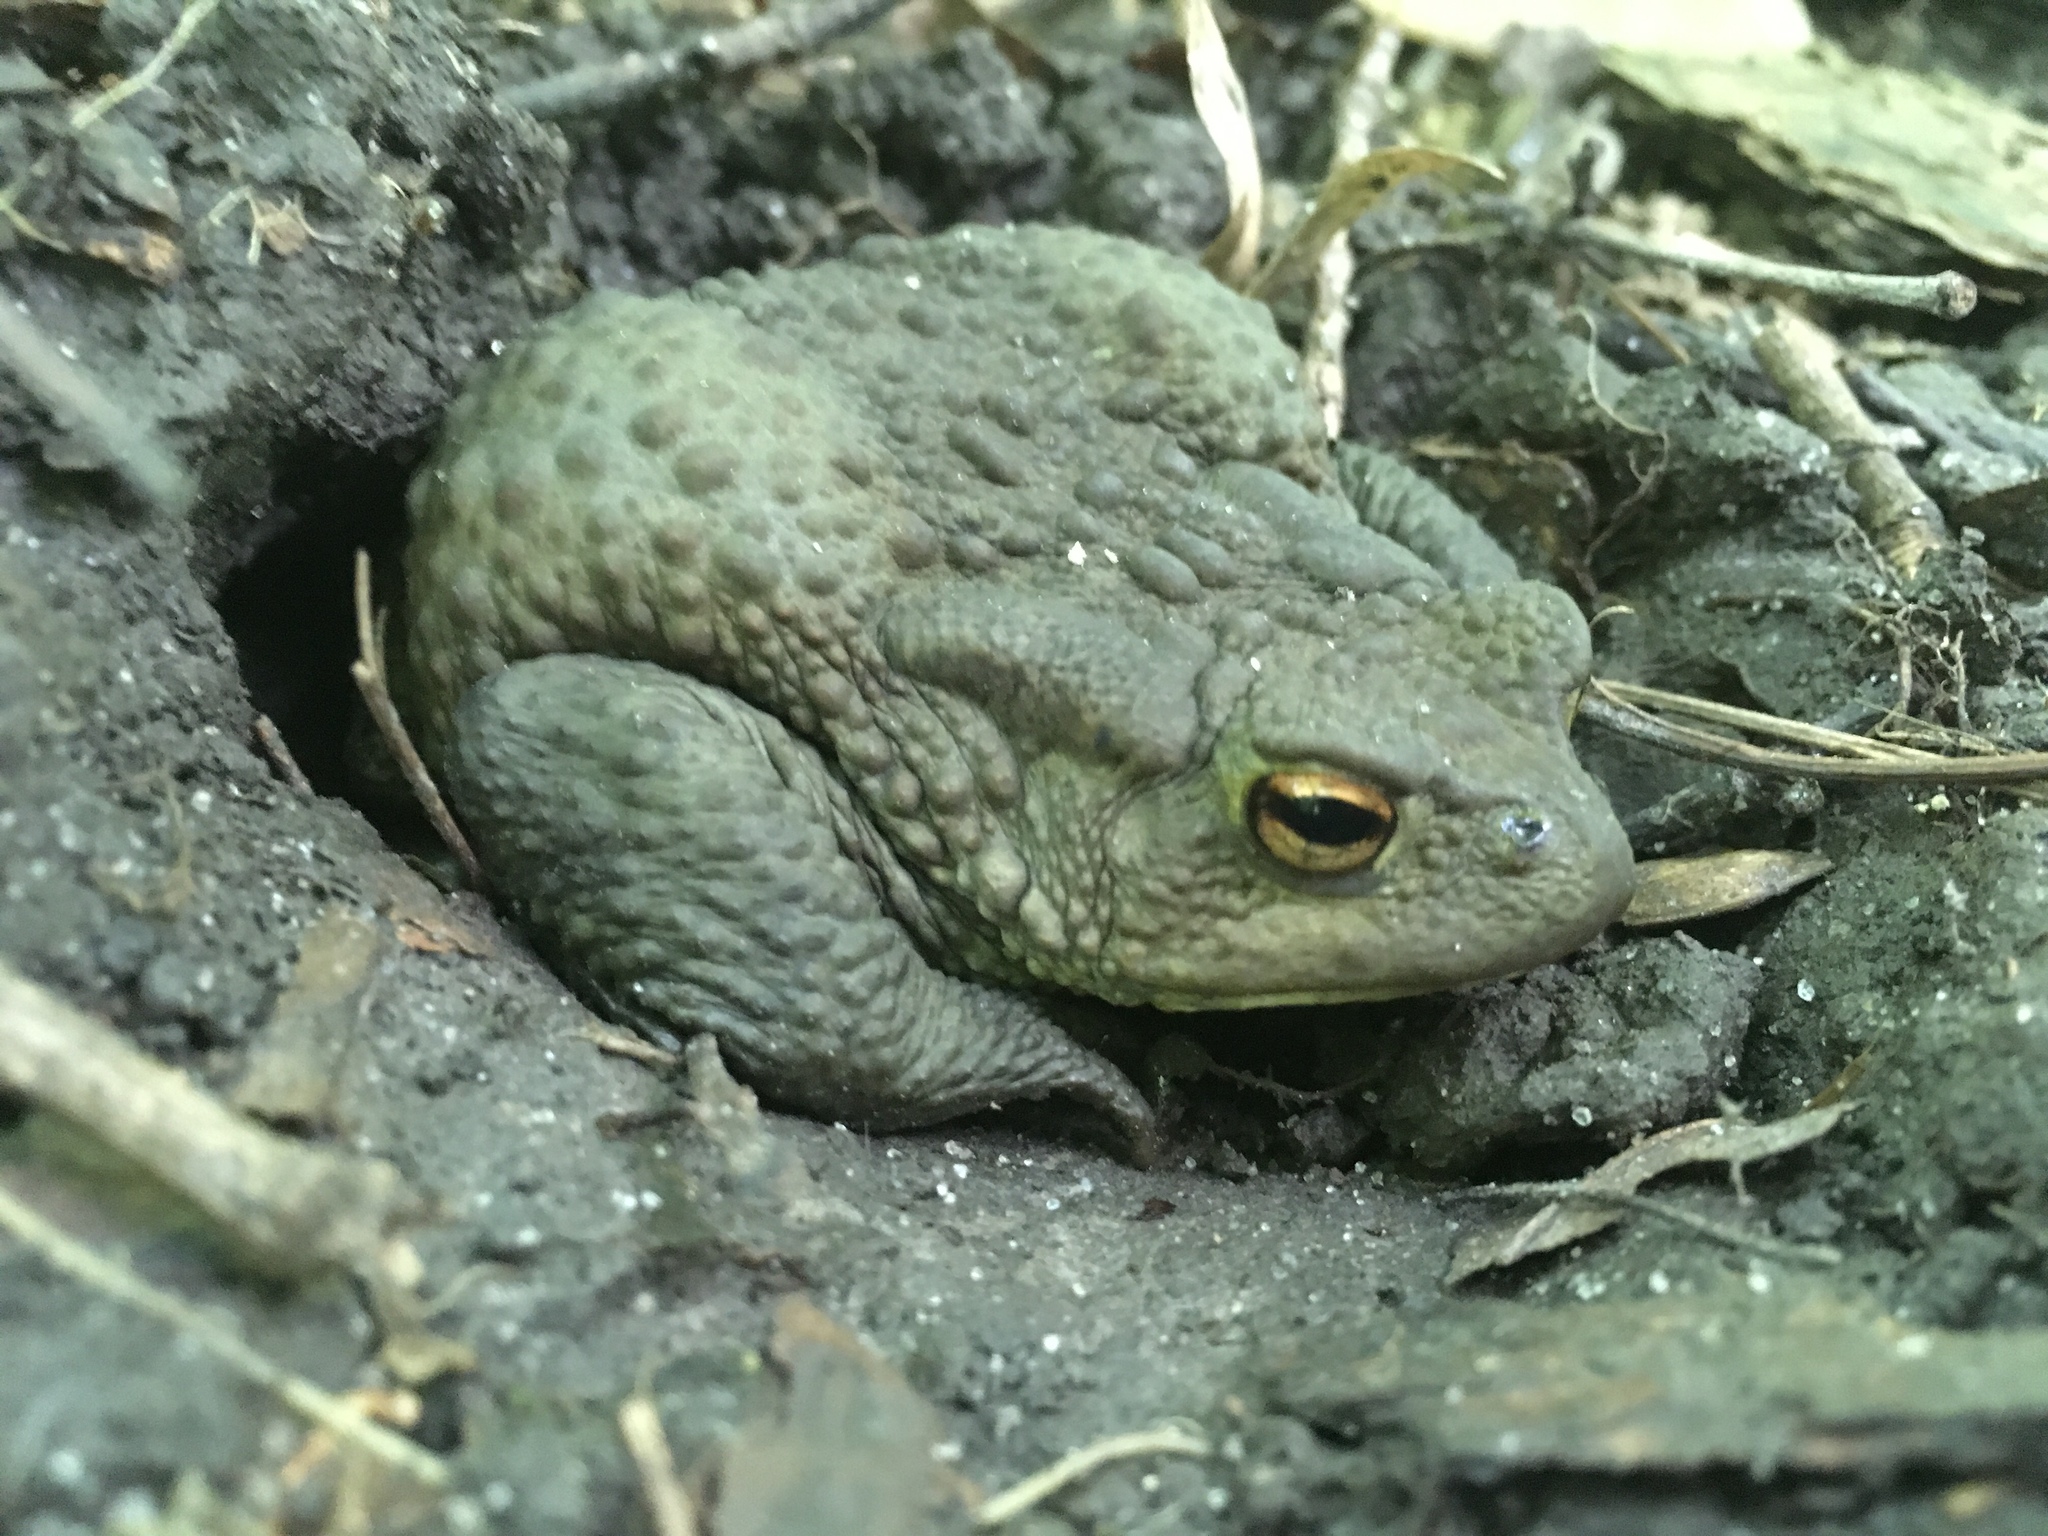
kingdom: Animalia
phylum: Chordata
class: Amphibia
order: Anura
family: Bufonidae
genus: Bufo
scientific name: Bufo bufo
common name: Common toad
